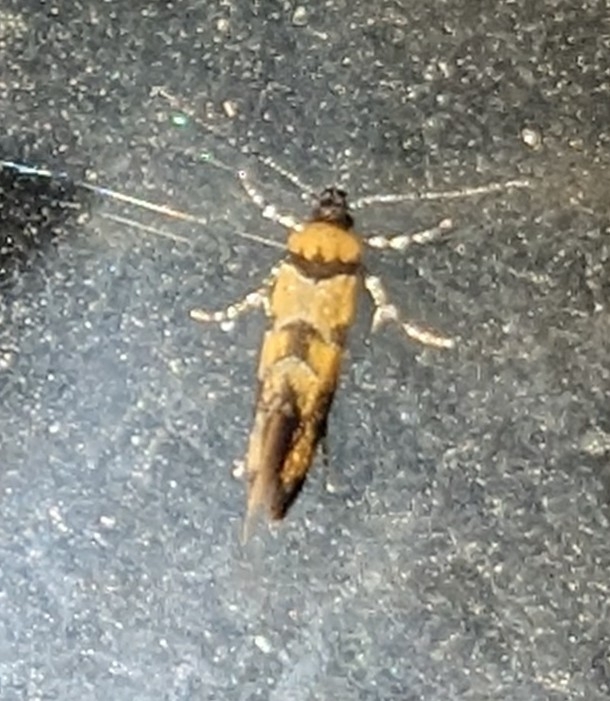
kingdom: Animalia
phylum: Arthropoda
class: Insecta
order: Lepidoptera
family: Oecophoridae
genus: Decantha
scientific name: Decantha borkhausenii
